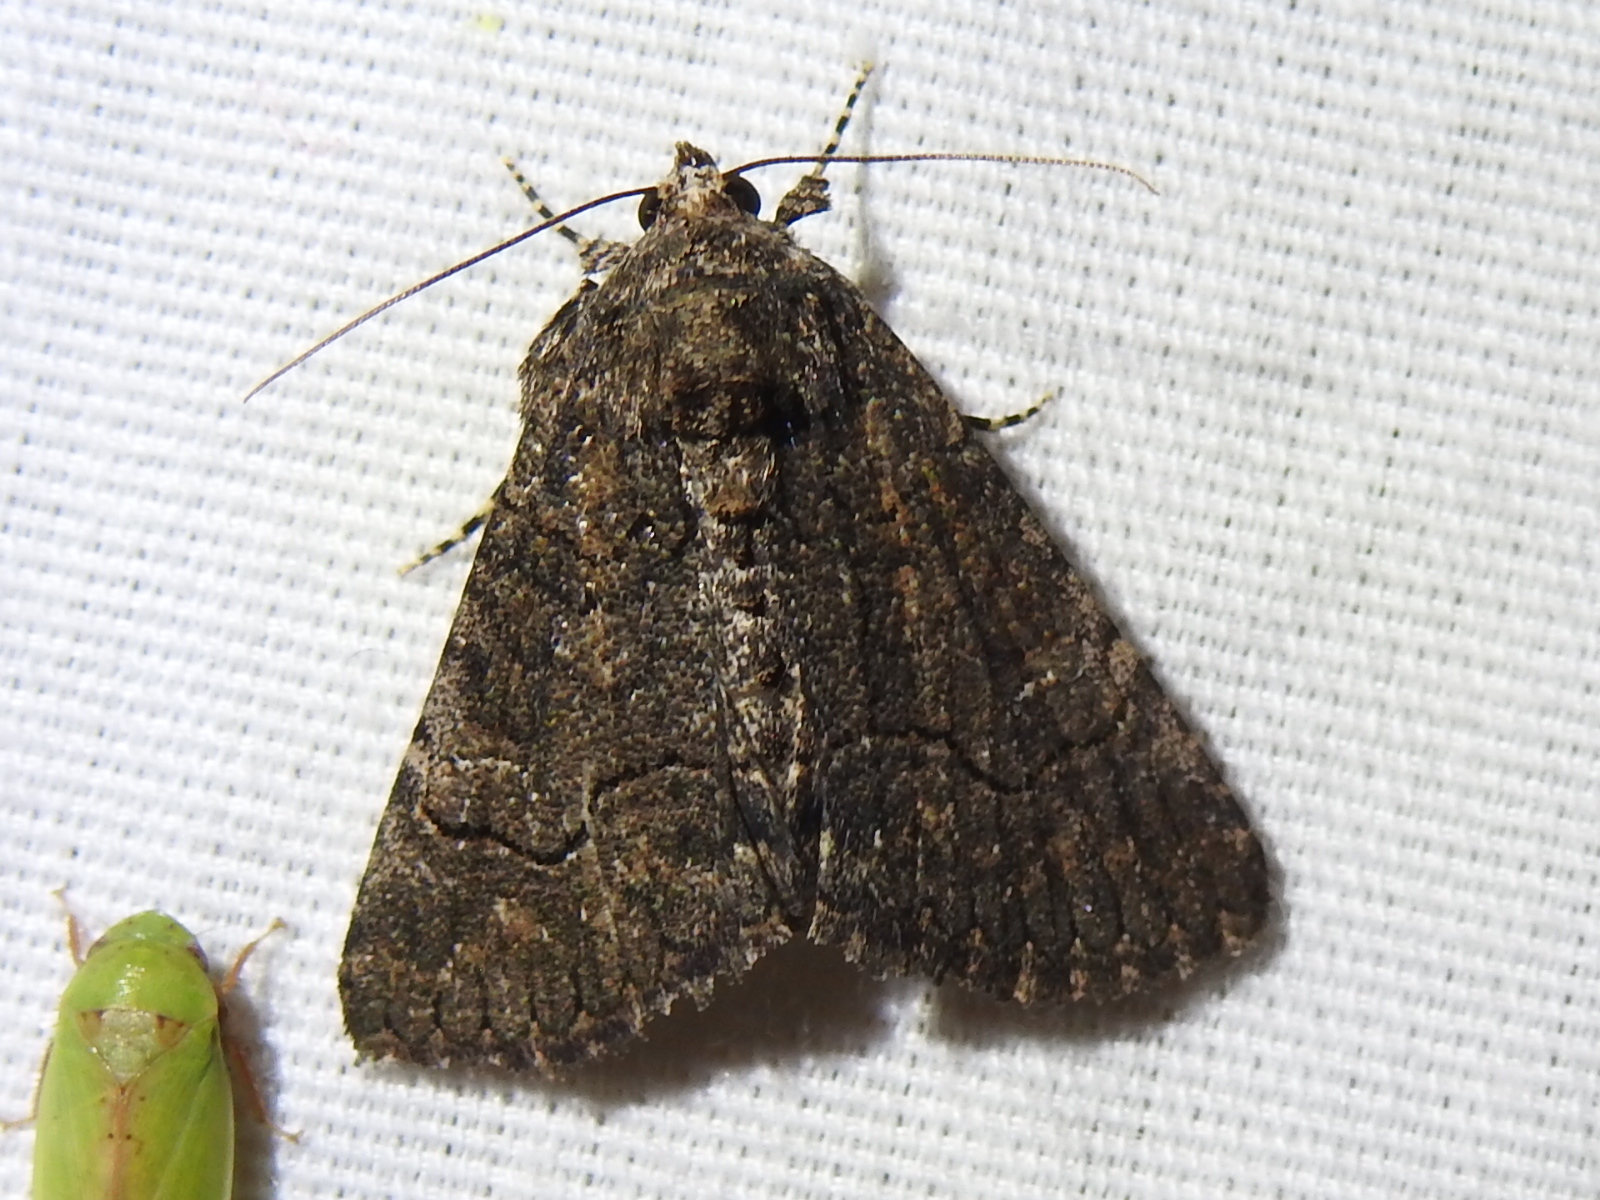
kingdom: Animalia
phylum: Arthropoda
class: Insecta
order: Lepidoptera
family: Erebidae
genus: Elousa
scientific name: Elousa mima
